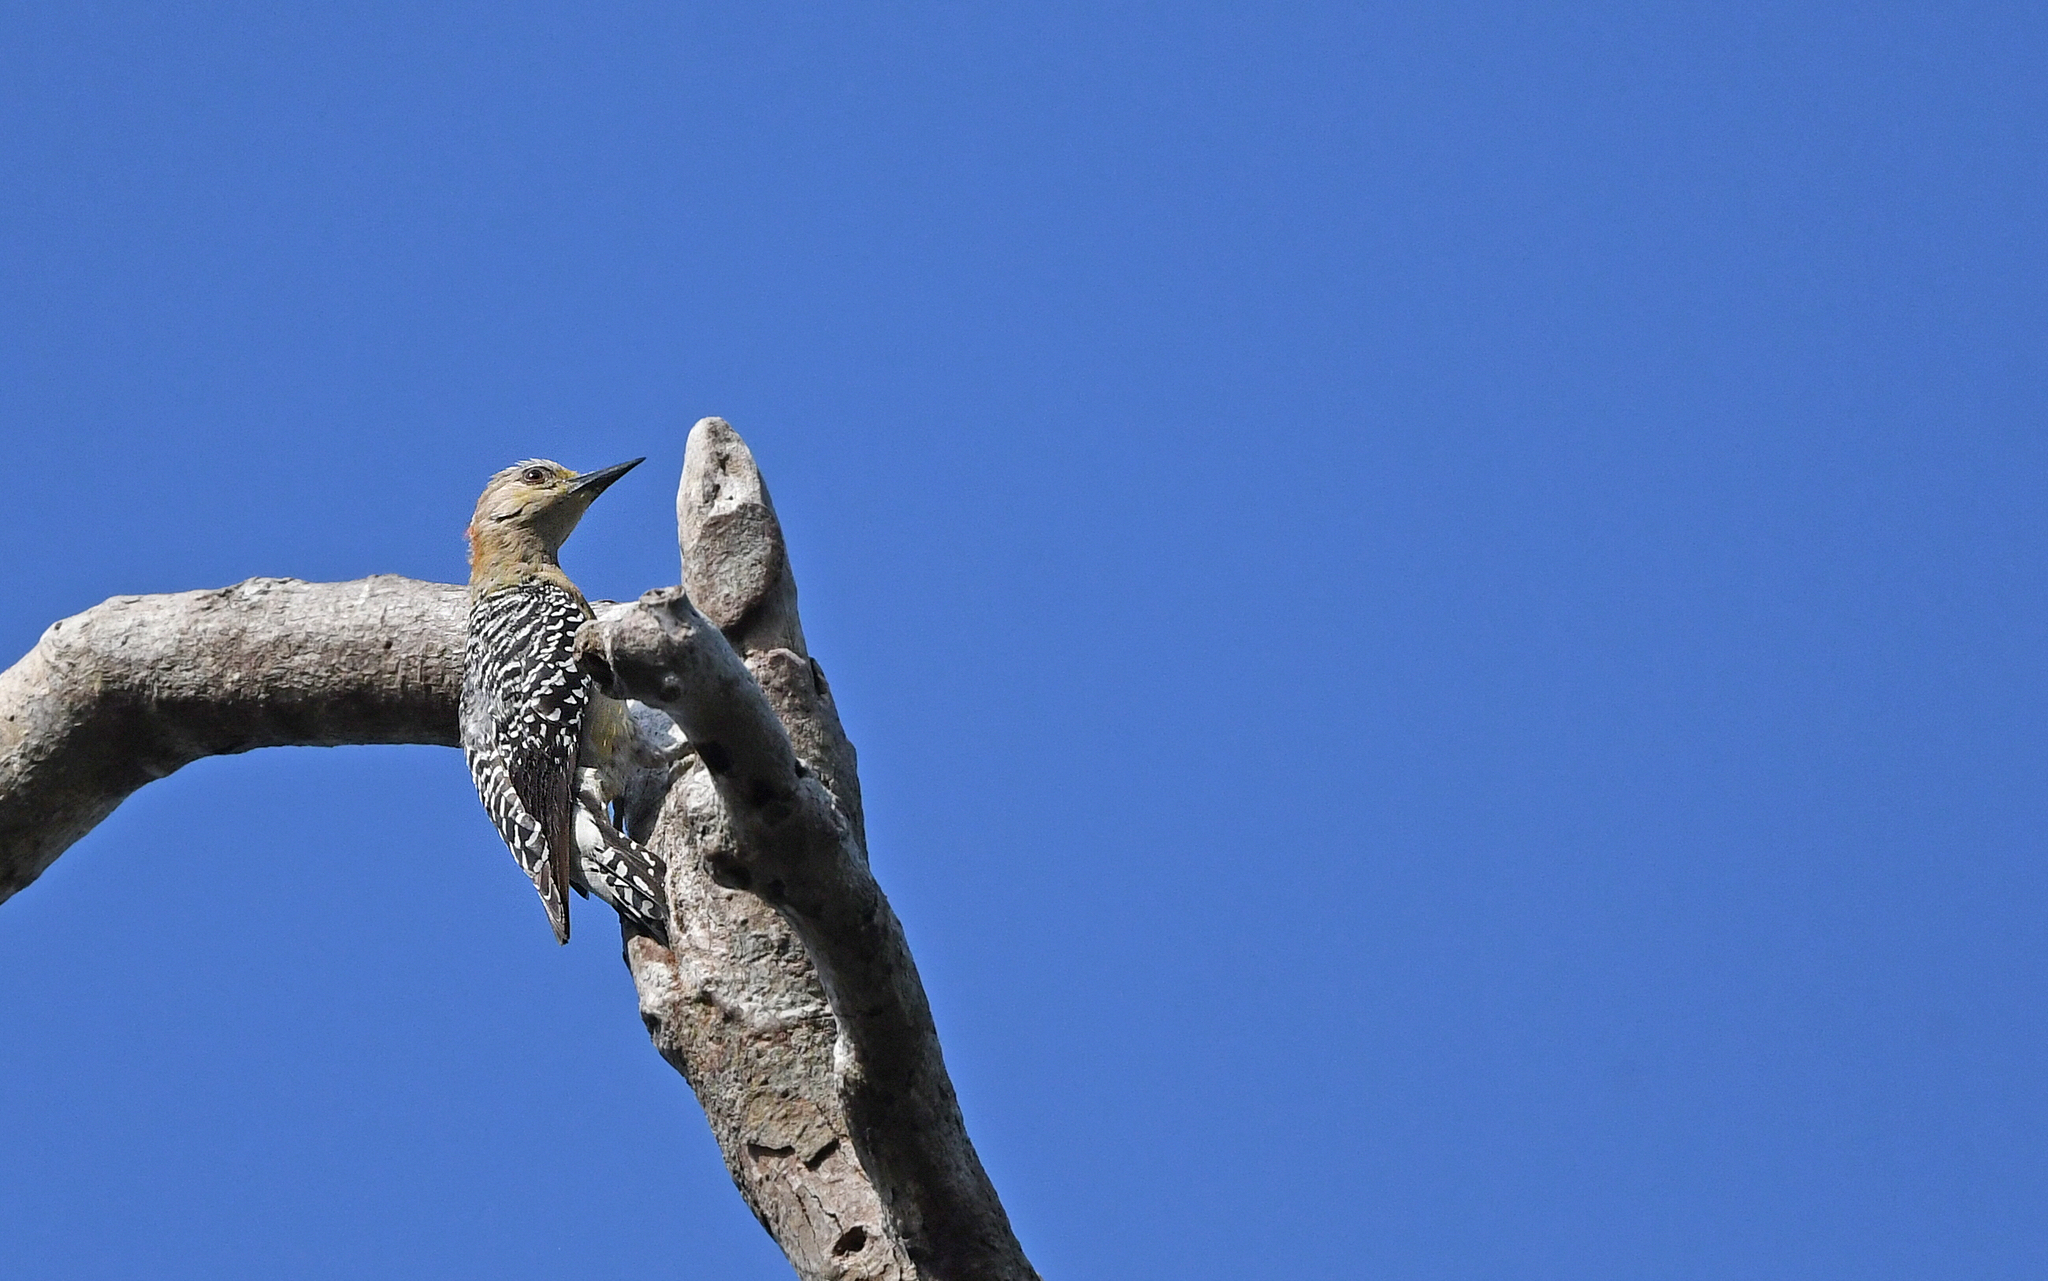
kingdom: Animalia
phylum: Chordata
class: Aves
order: Piciformes
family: Picidae
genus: Melanerpes
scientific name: Melanerpes rubricapillus
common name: Red-crowned woodpecker
